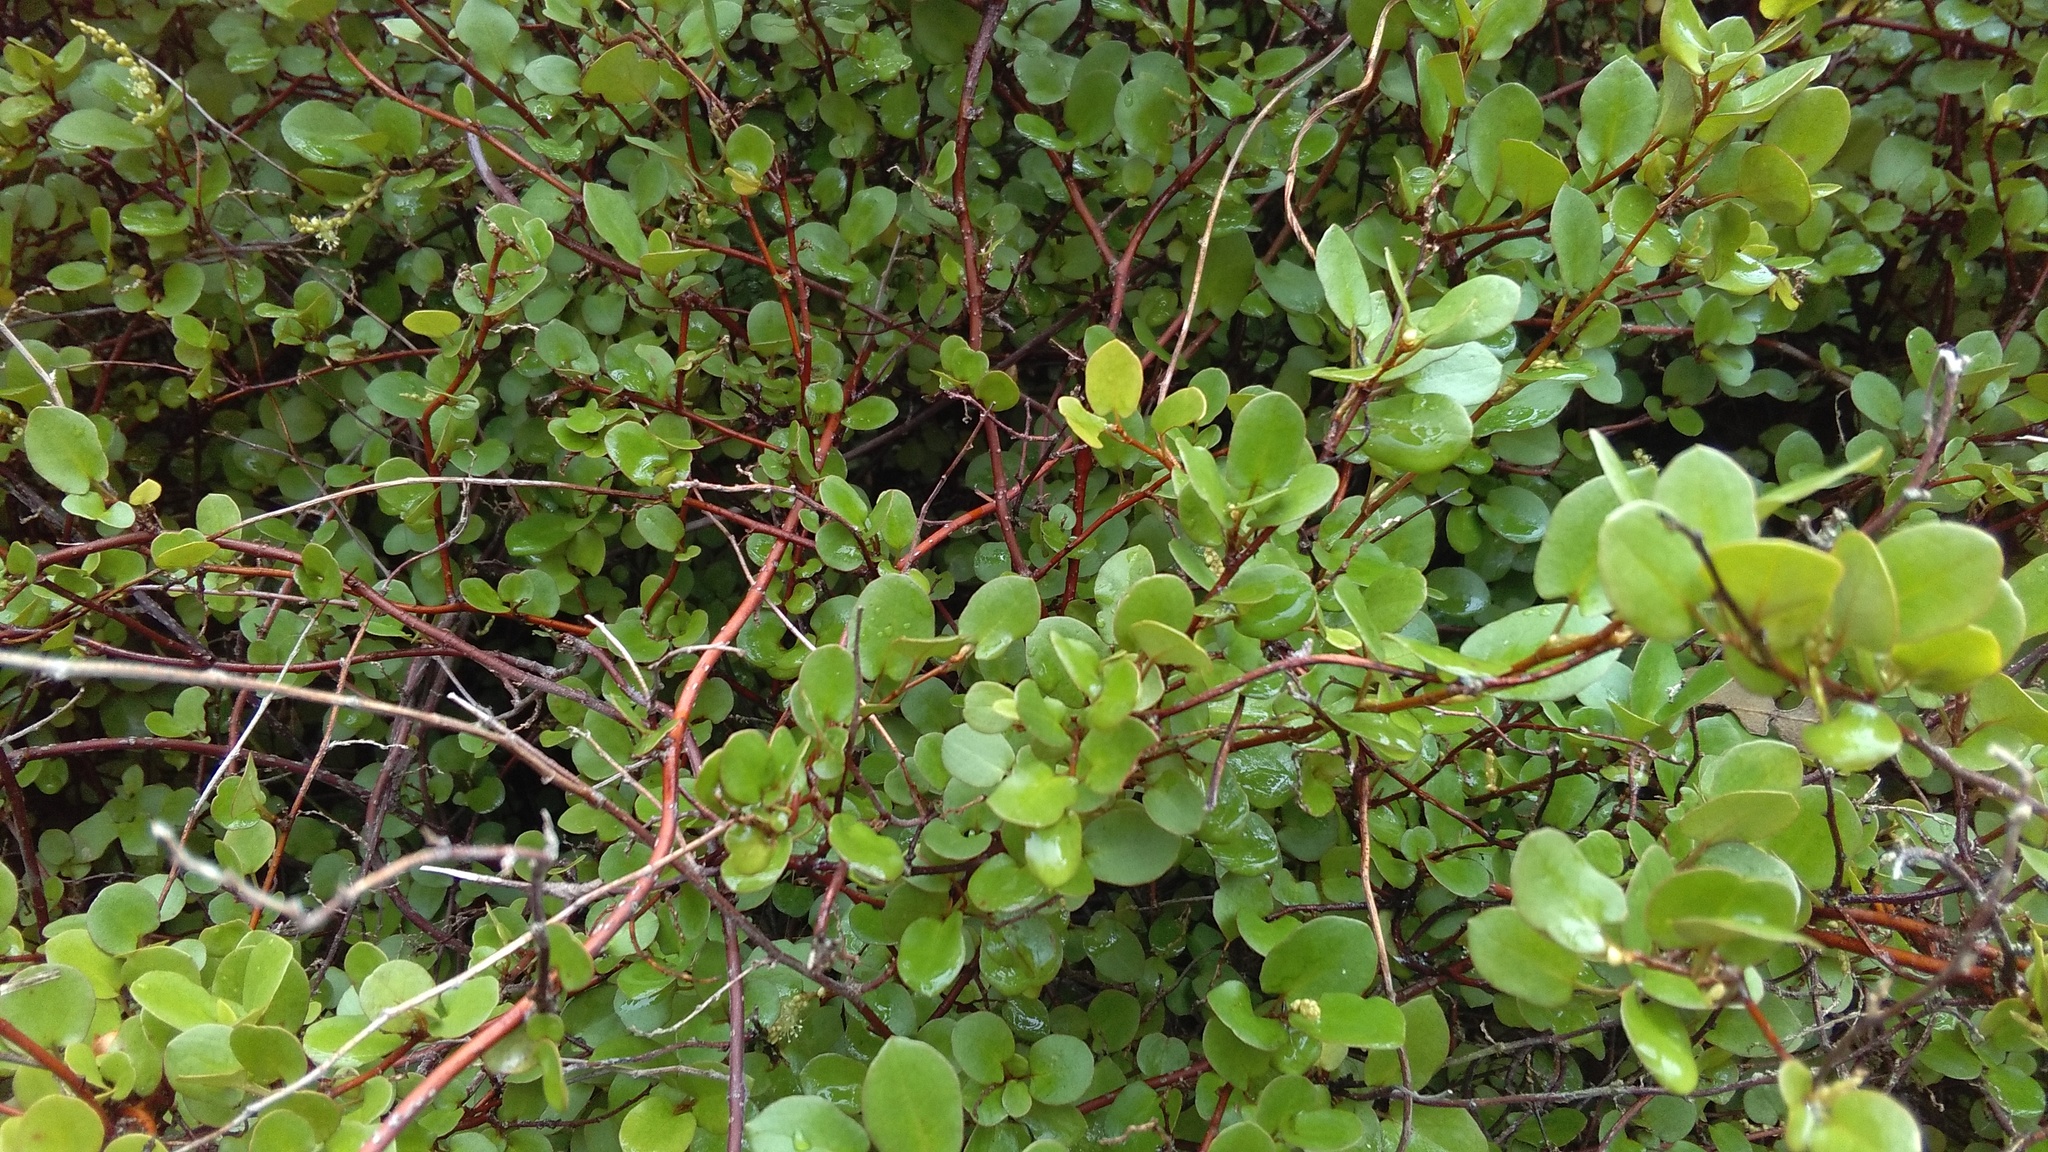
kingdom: Plantae
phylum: Tracheophyta
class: Magnoliopsida
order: Caryophyllales
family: Polygonaceae
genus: Muehlenbeckia
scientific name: Muehlenbeckia complexa
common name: Wireplant
